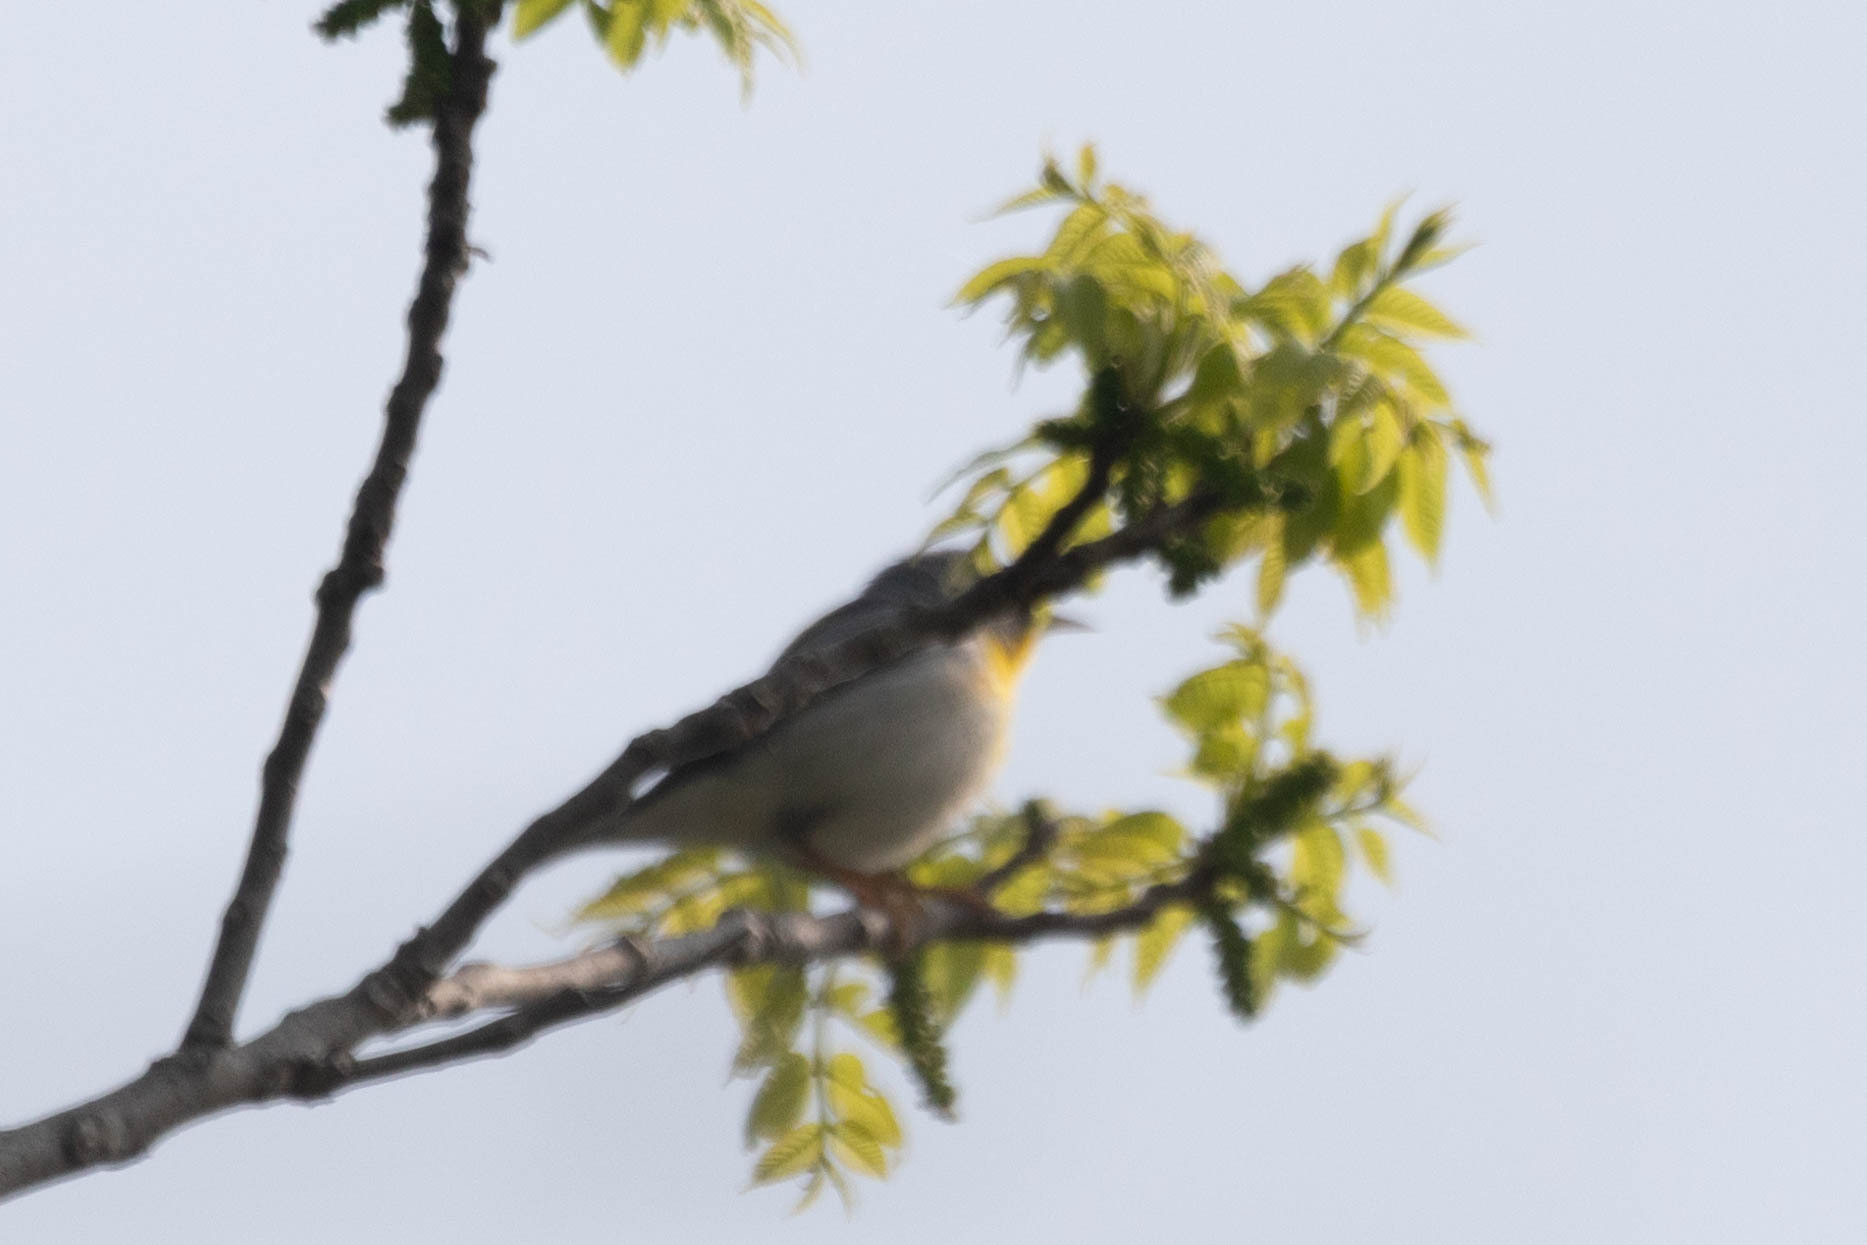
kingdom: Animalia
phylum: Chordata
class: Aves
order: Passeriformes
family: Parulidae
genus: Setophaga
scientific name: Setophaga americana
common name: Northern parula
